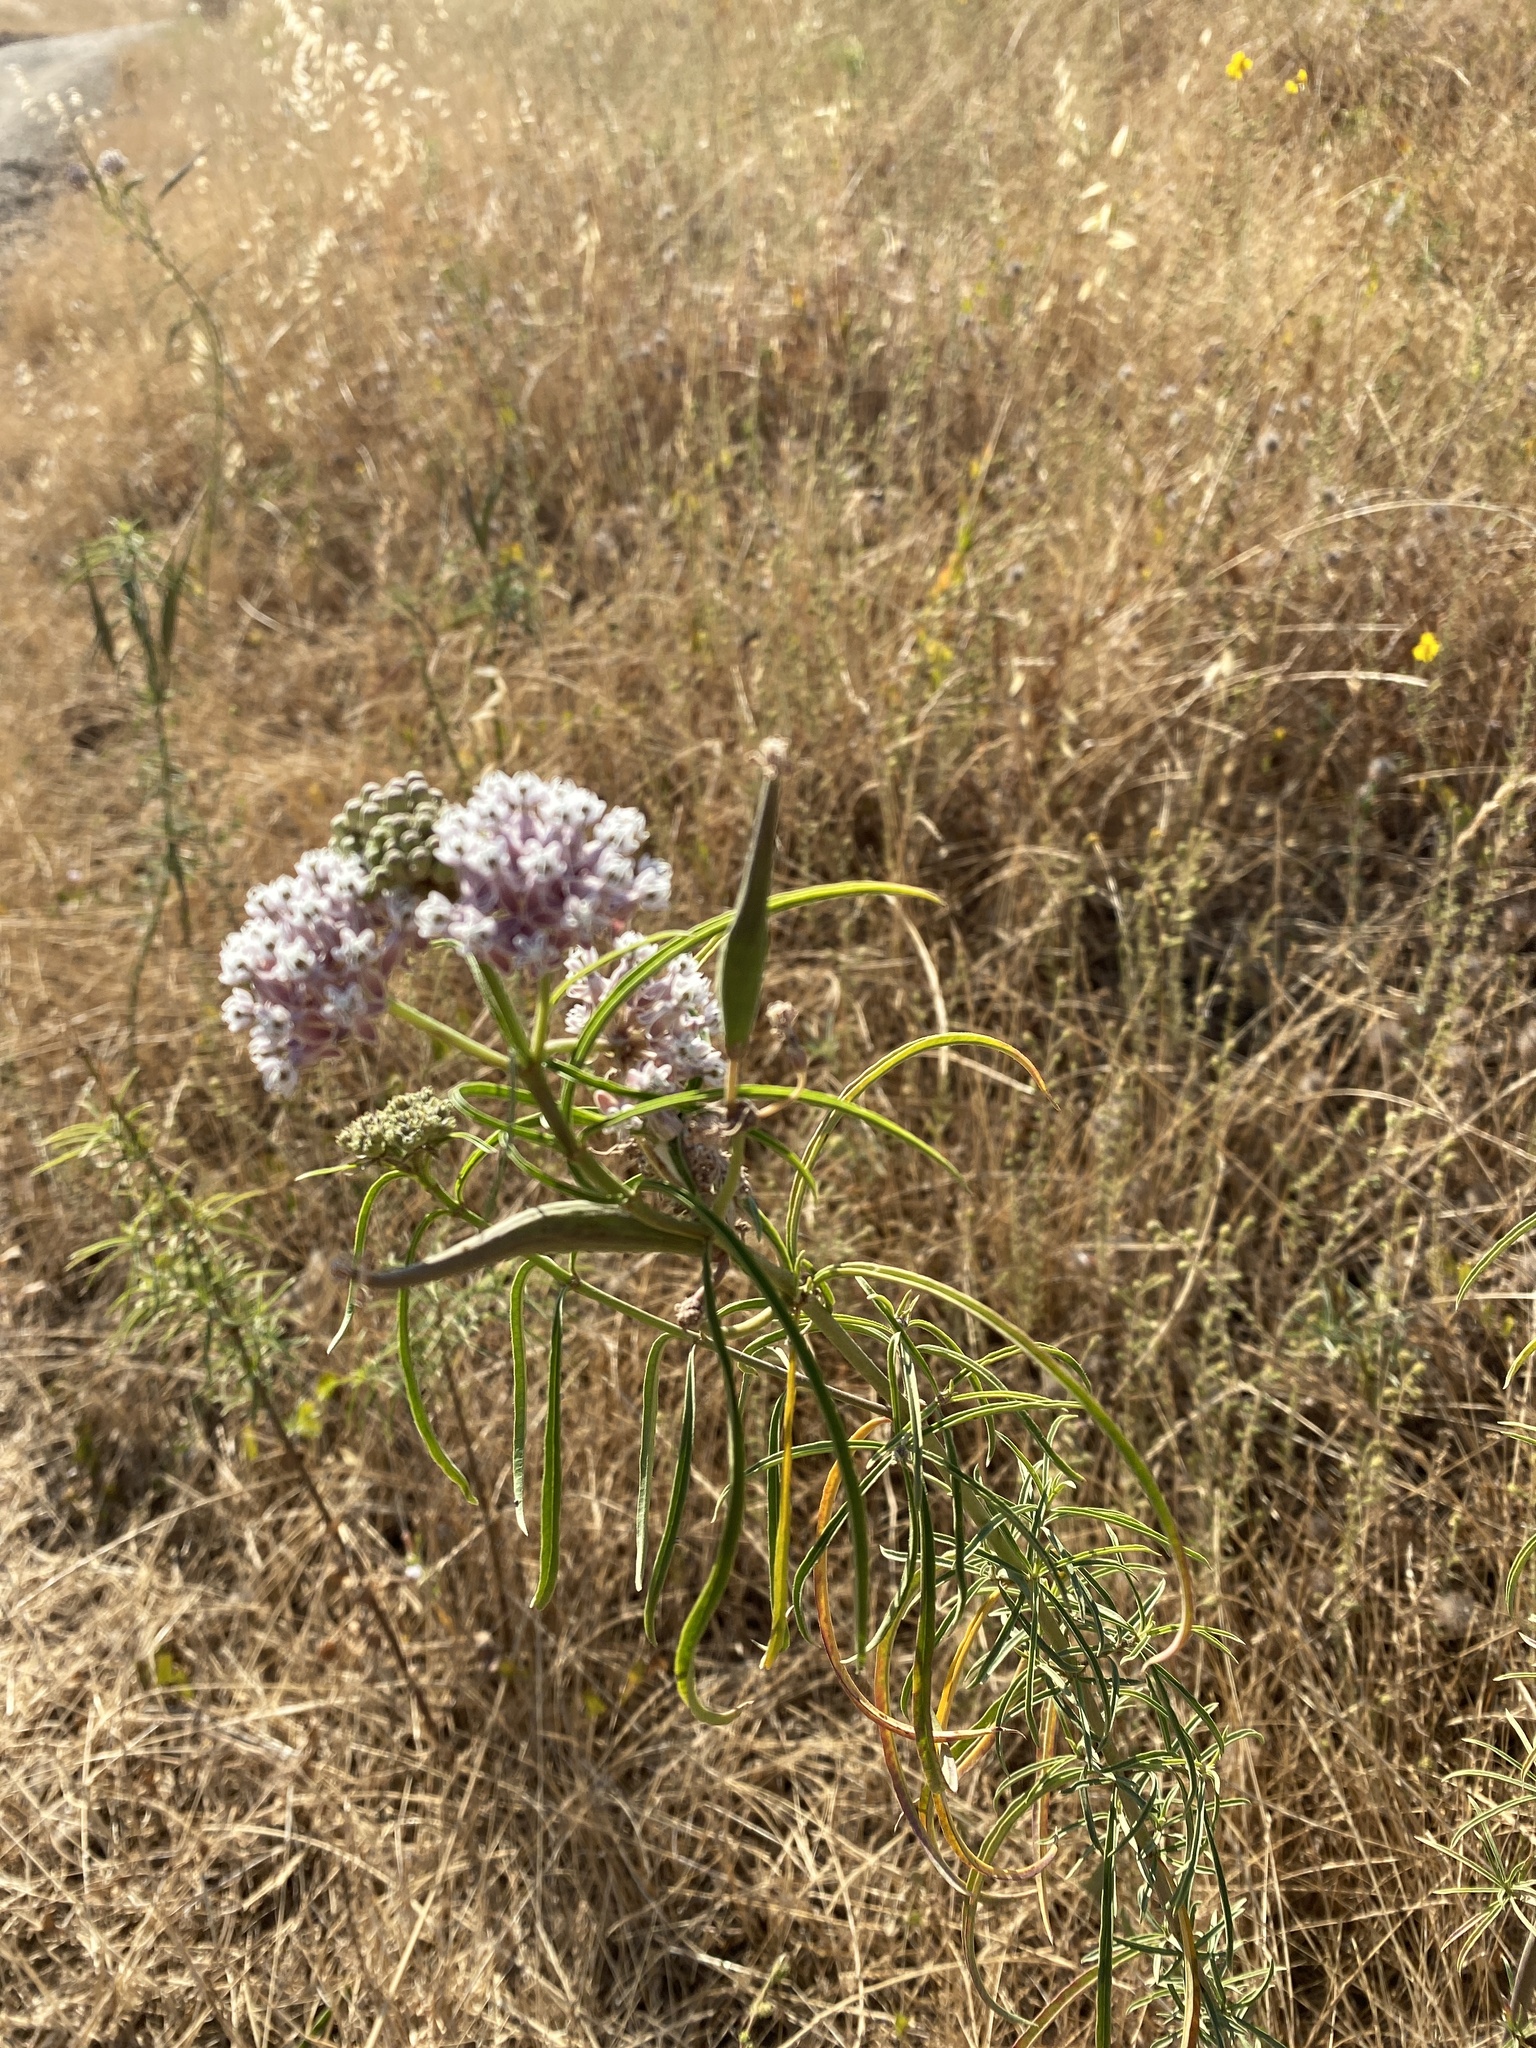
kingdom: Plantae
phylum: Tracheophyta
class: Magnoliopsida
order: Gentianales
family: Apocynaceae
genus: Asclepias
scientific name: Asclepias fascicularis
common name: Mexican milkweed
